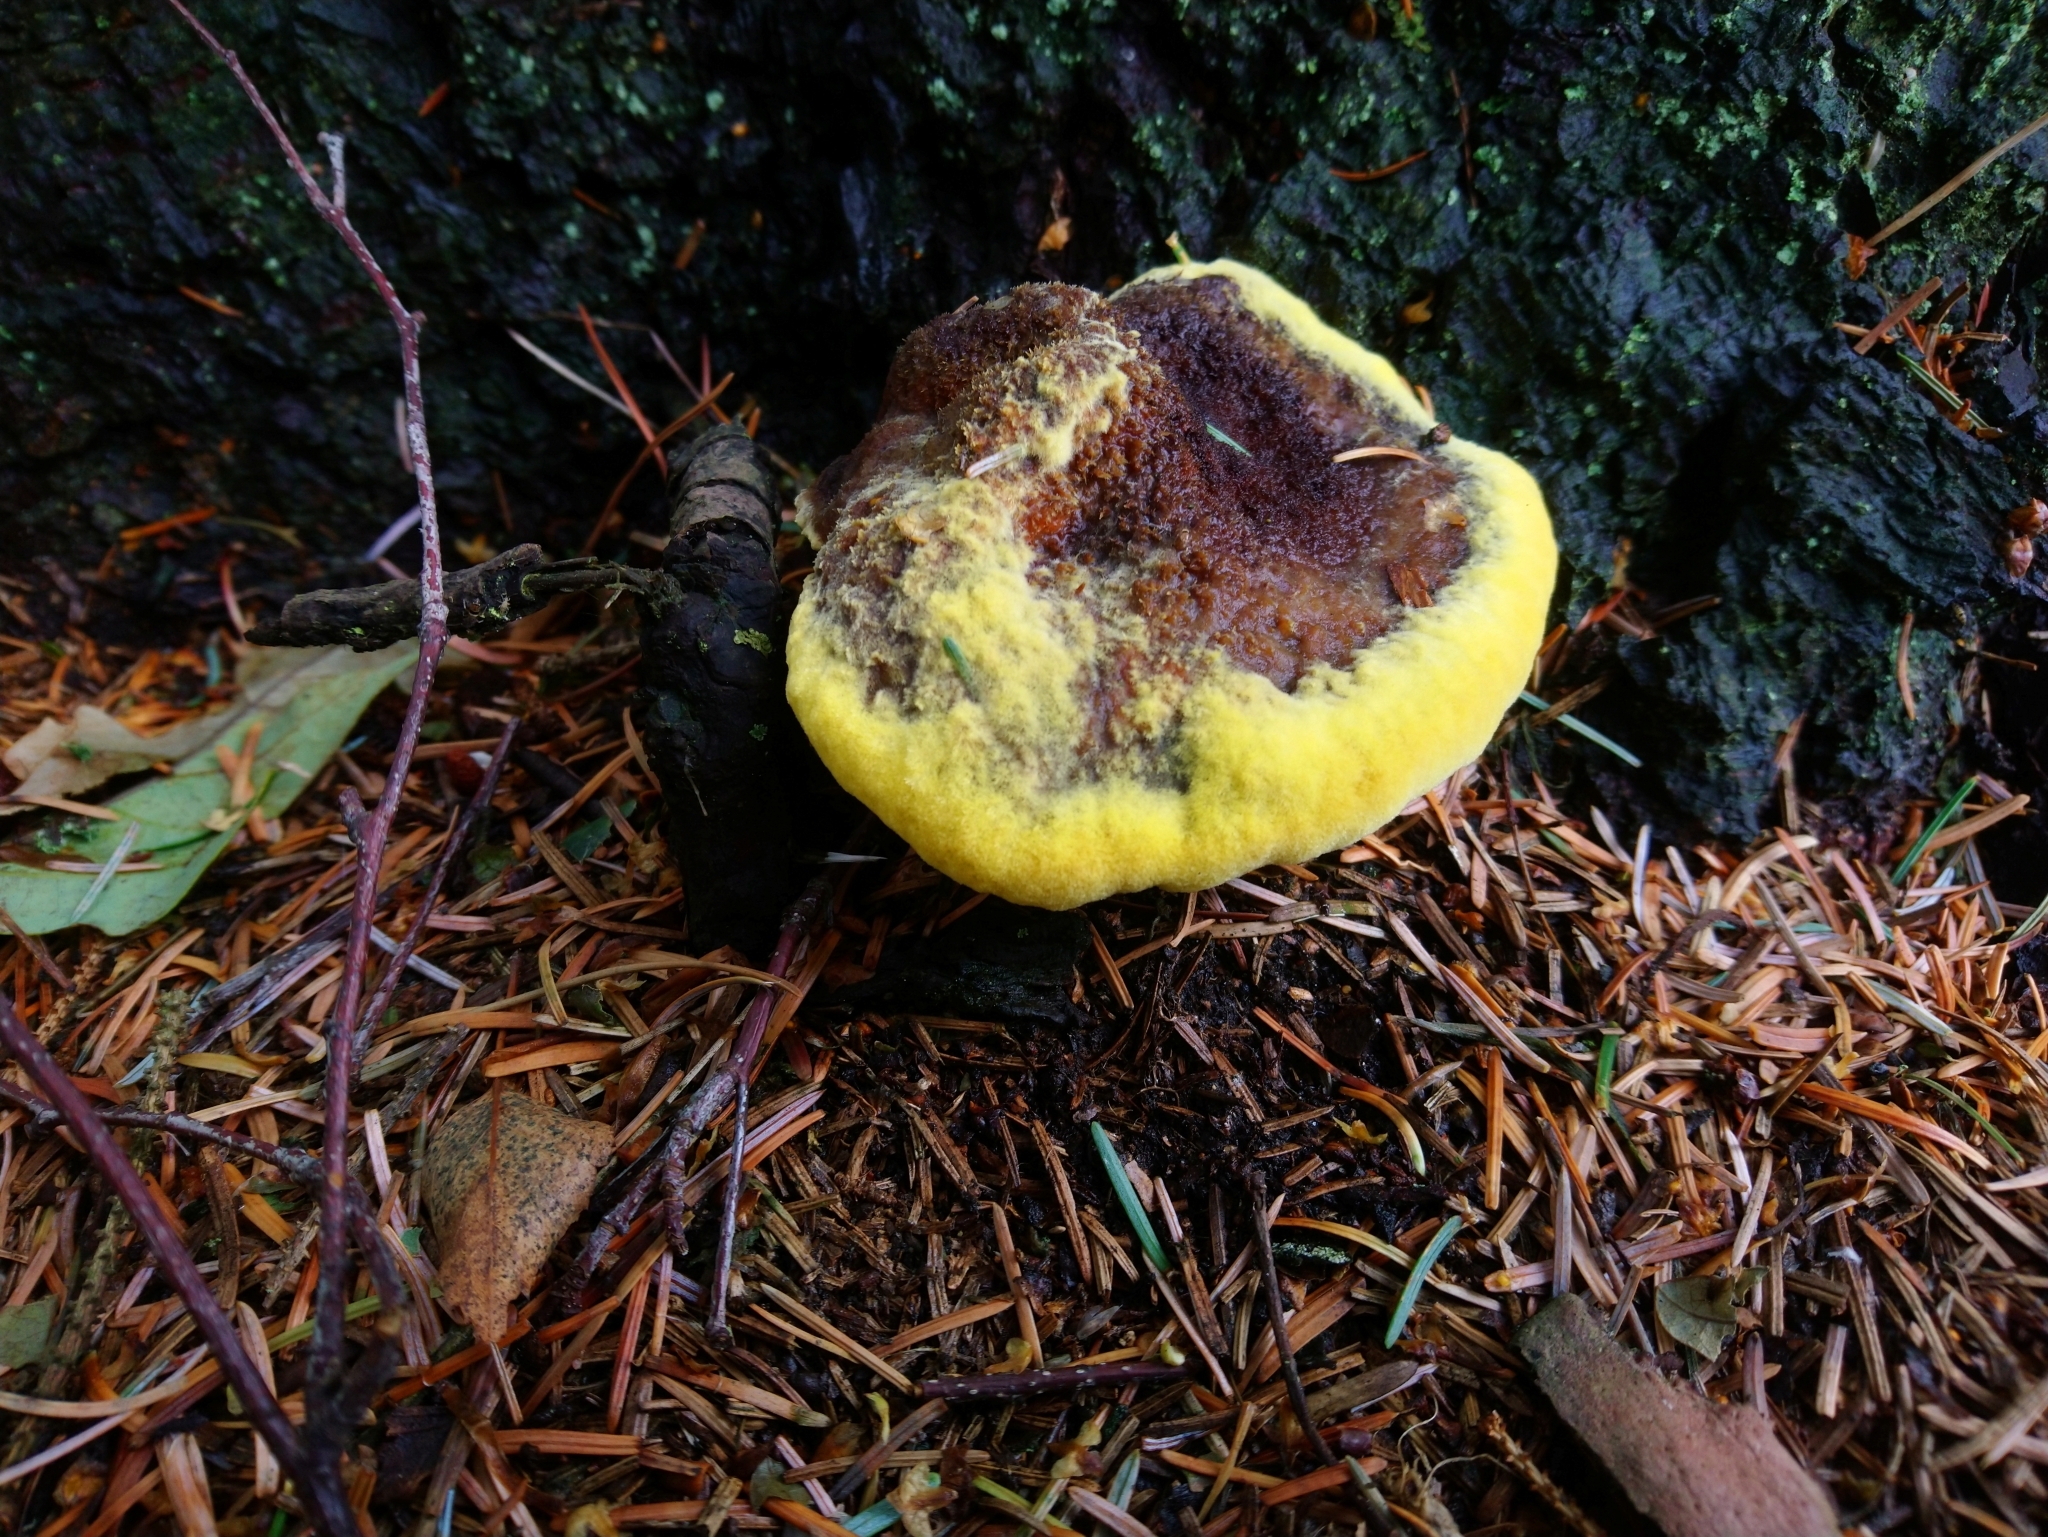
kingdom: Fungi
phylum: Basidiomycota
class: Agaricomycetes
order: Polyporales
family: Laetiporaceae
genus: Phaeolus
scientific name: Phaeolus schweinitzii
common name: Dyer's mazegill
